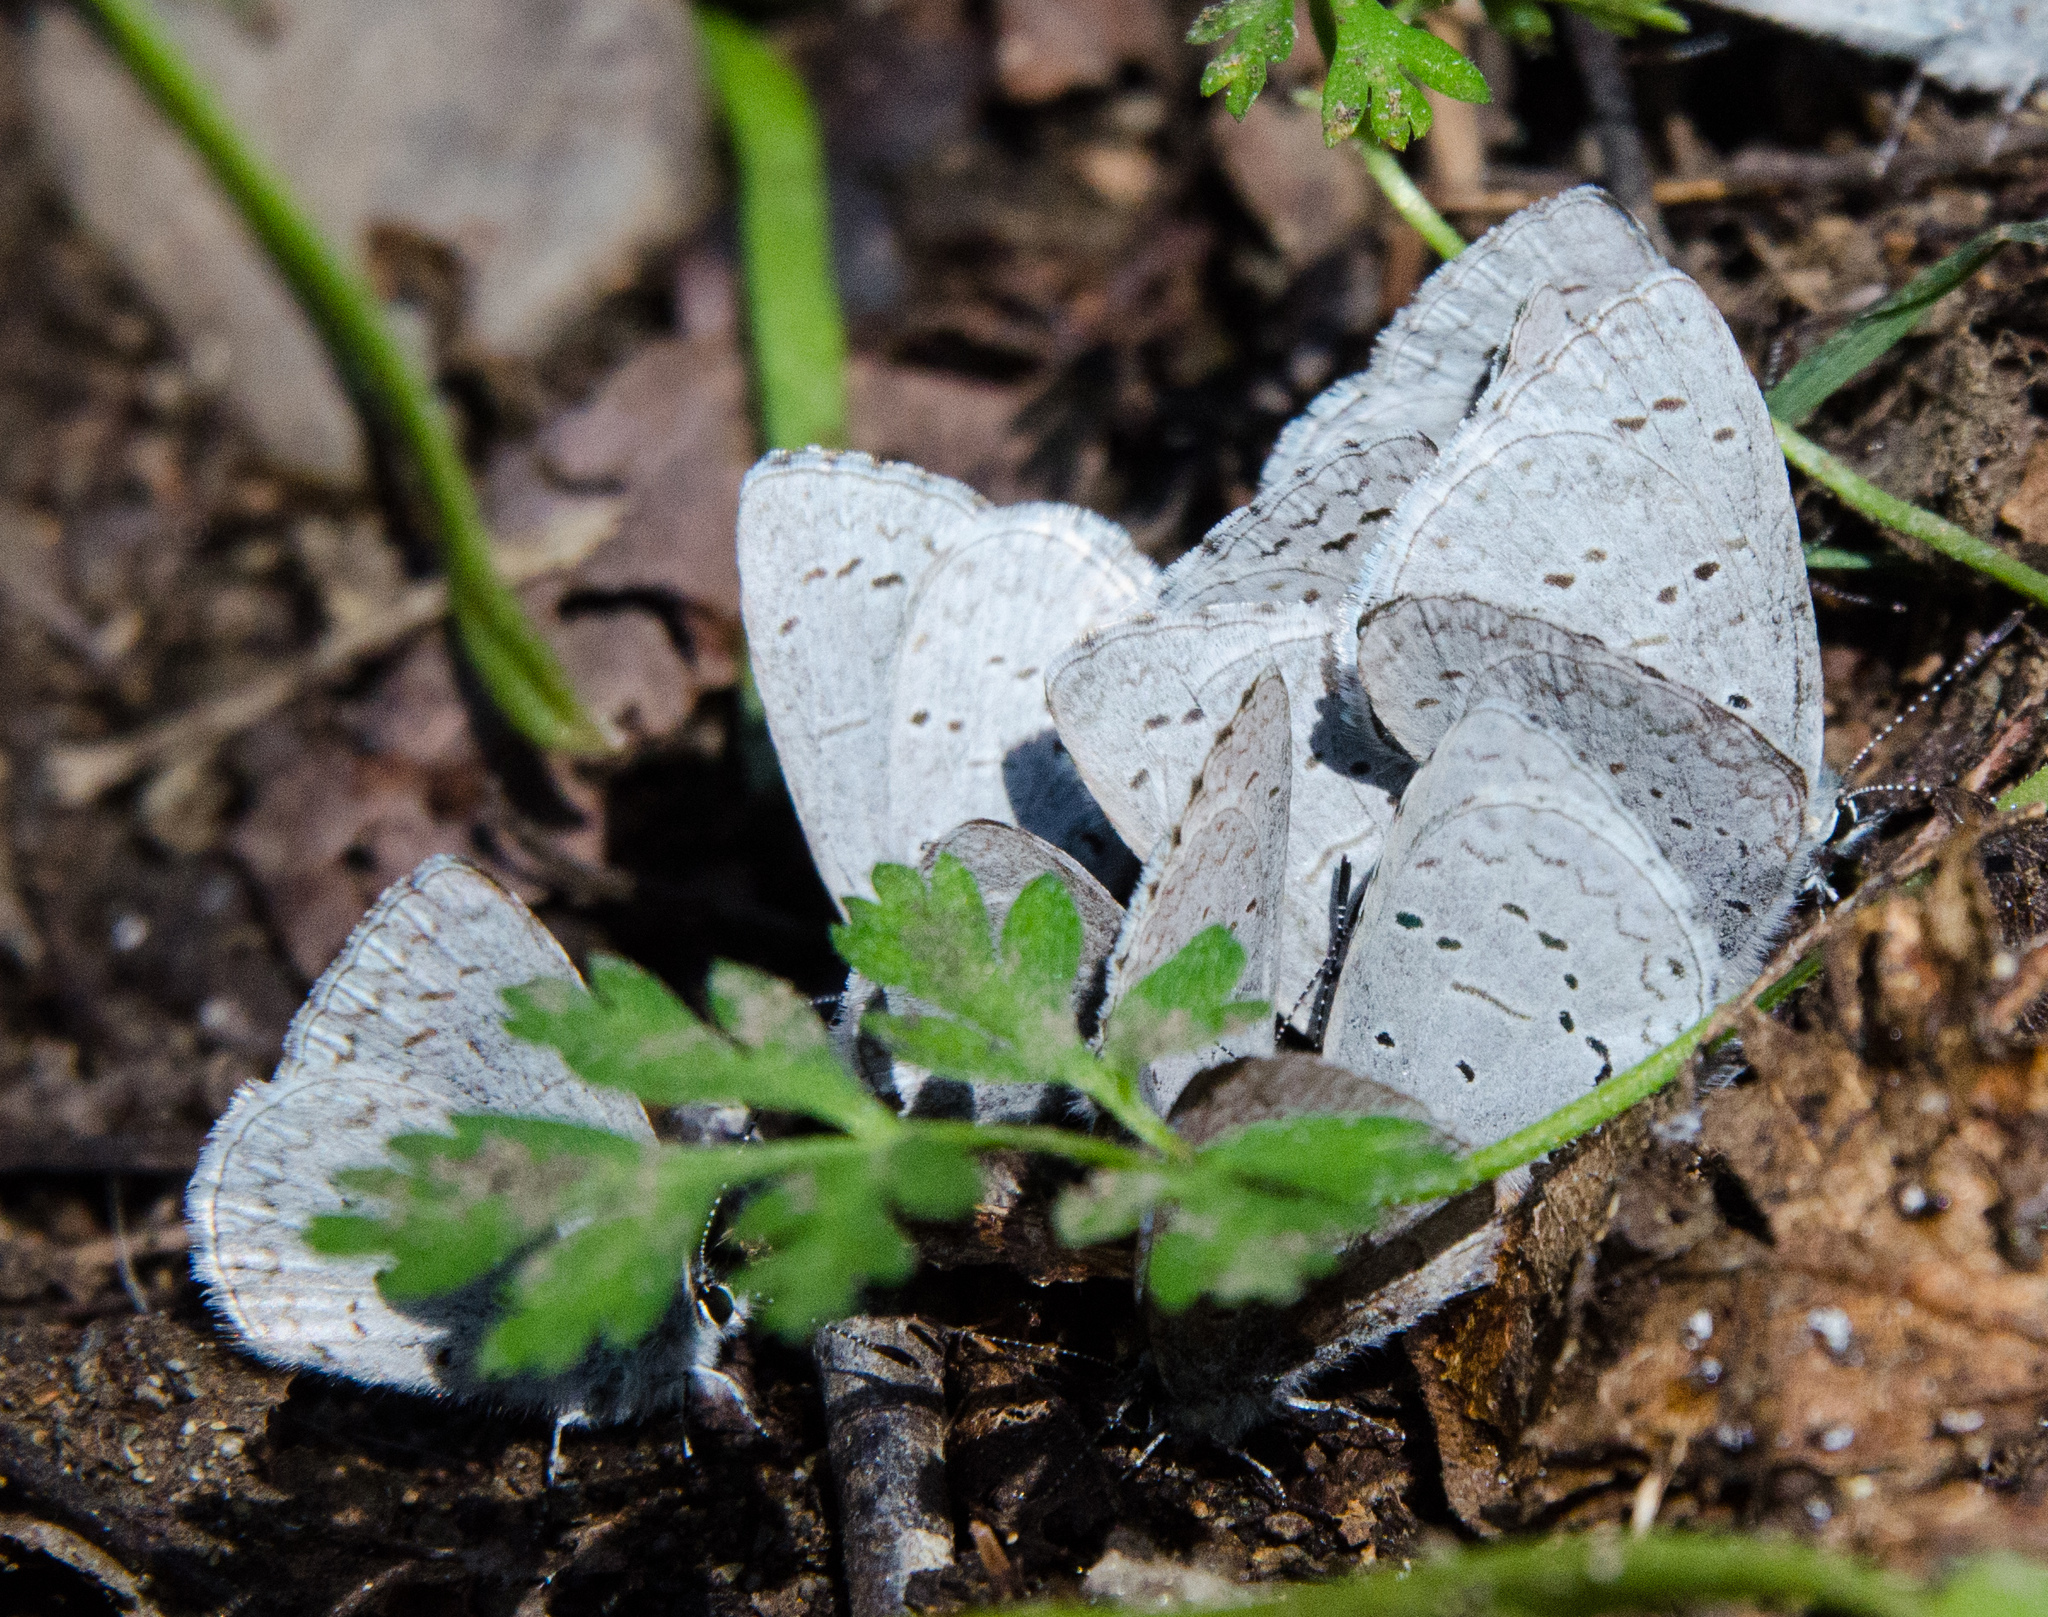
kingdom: Animalia
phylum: Arthropoda
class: Insecta
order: Lepidoptera
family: Lycaenidae
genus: Celastrina
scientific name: Celastrina ladon
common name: Spring azure
